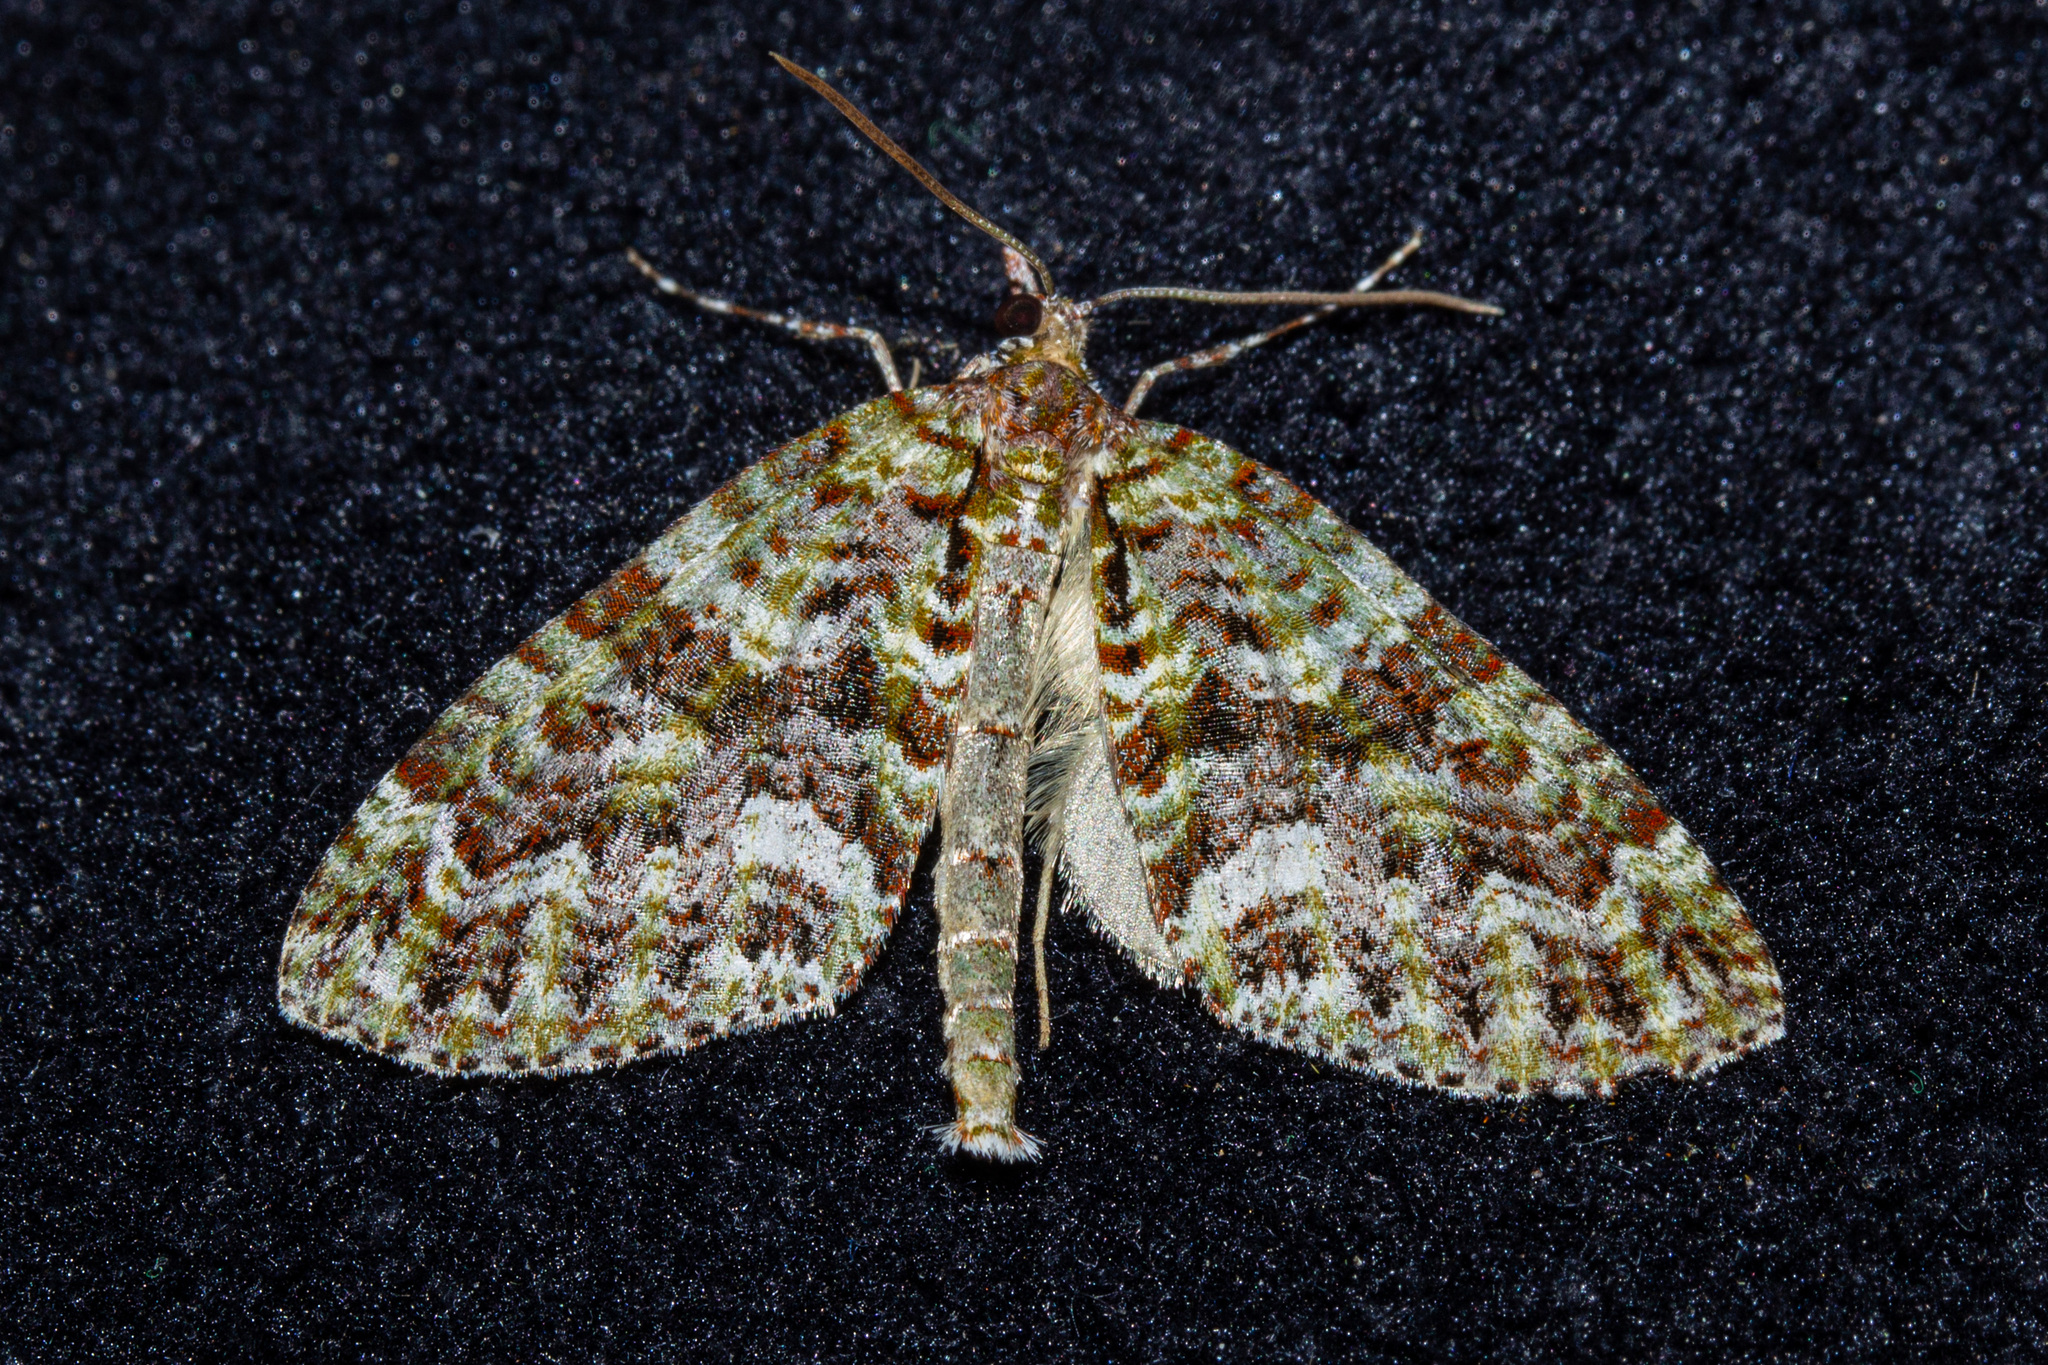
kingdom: Animalia
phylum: Arthropoda
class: Insecta
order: Lepidoptera
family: Geometridae
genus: Tatosoma
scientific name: Tatosoma agrionata
